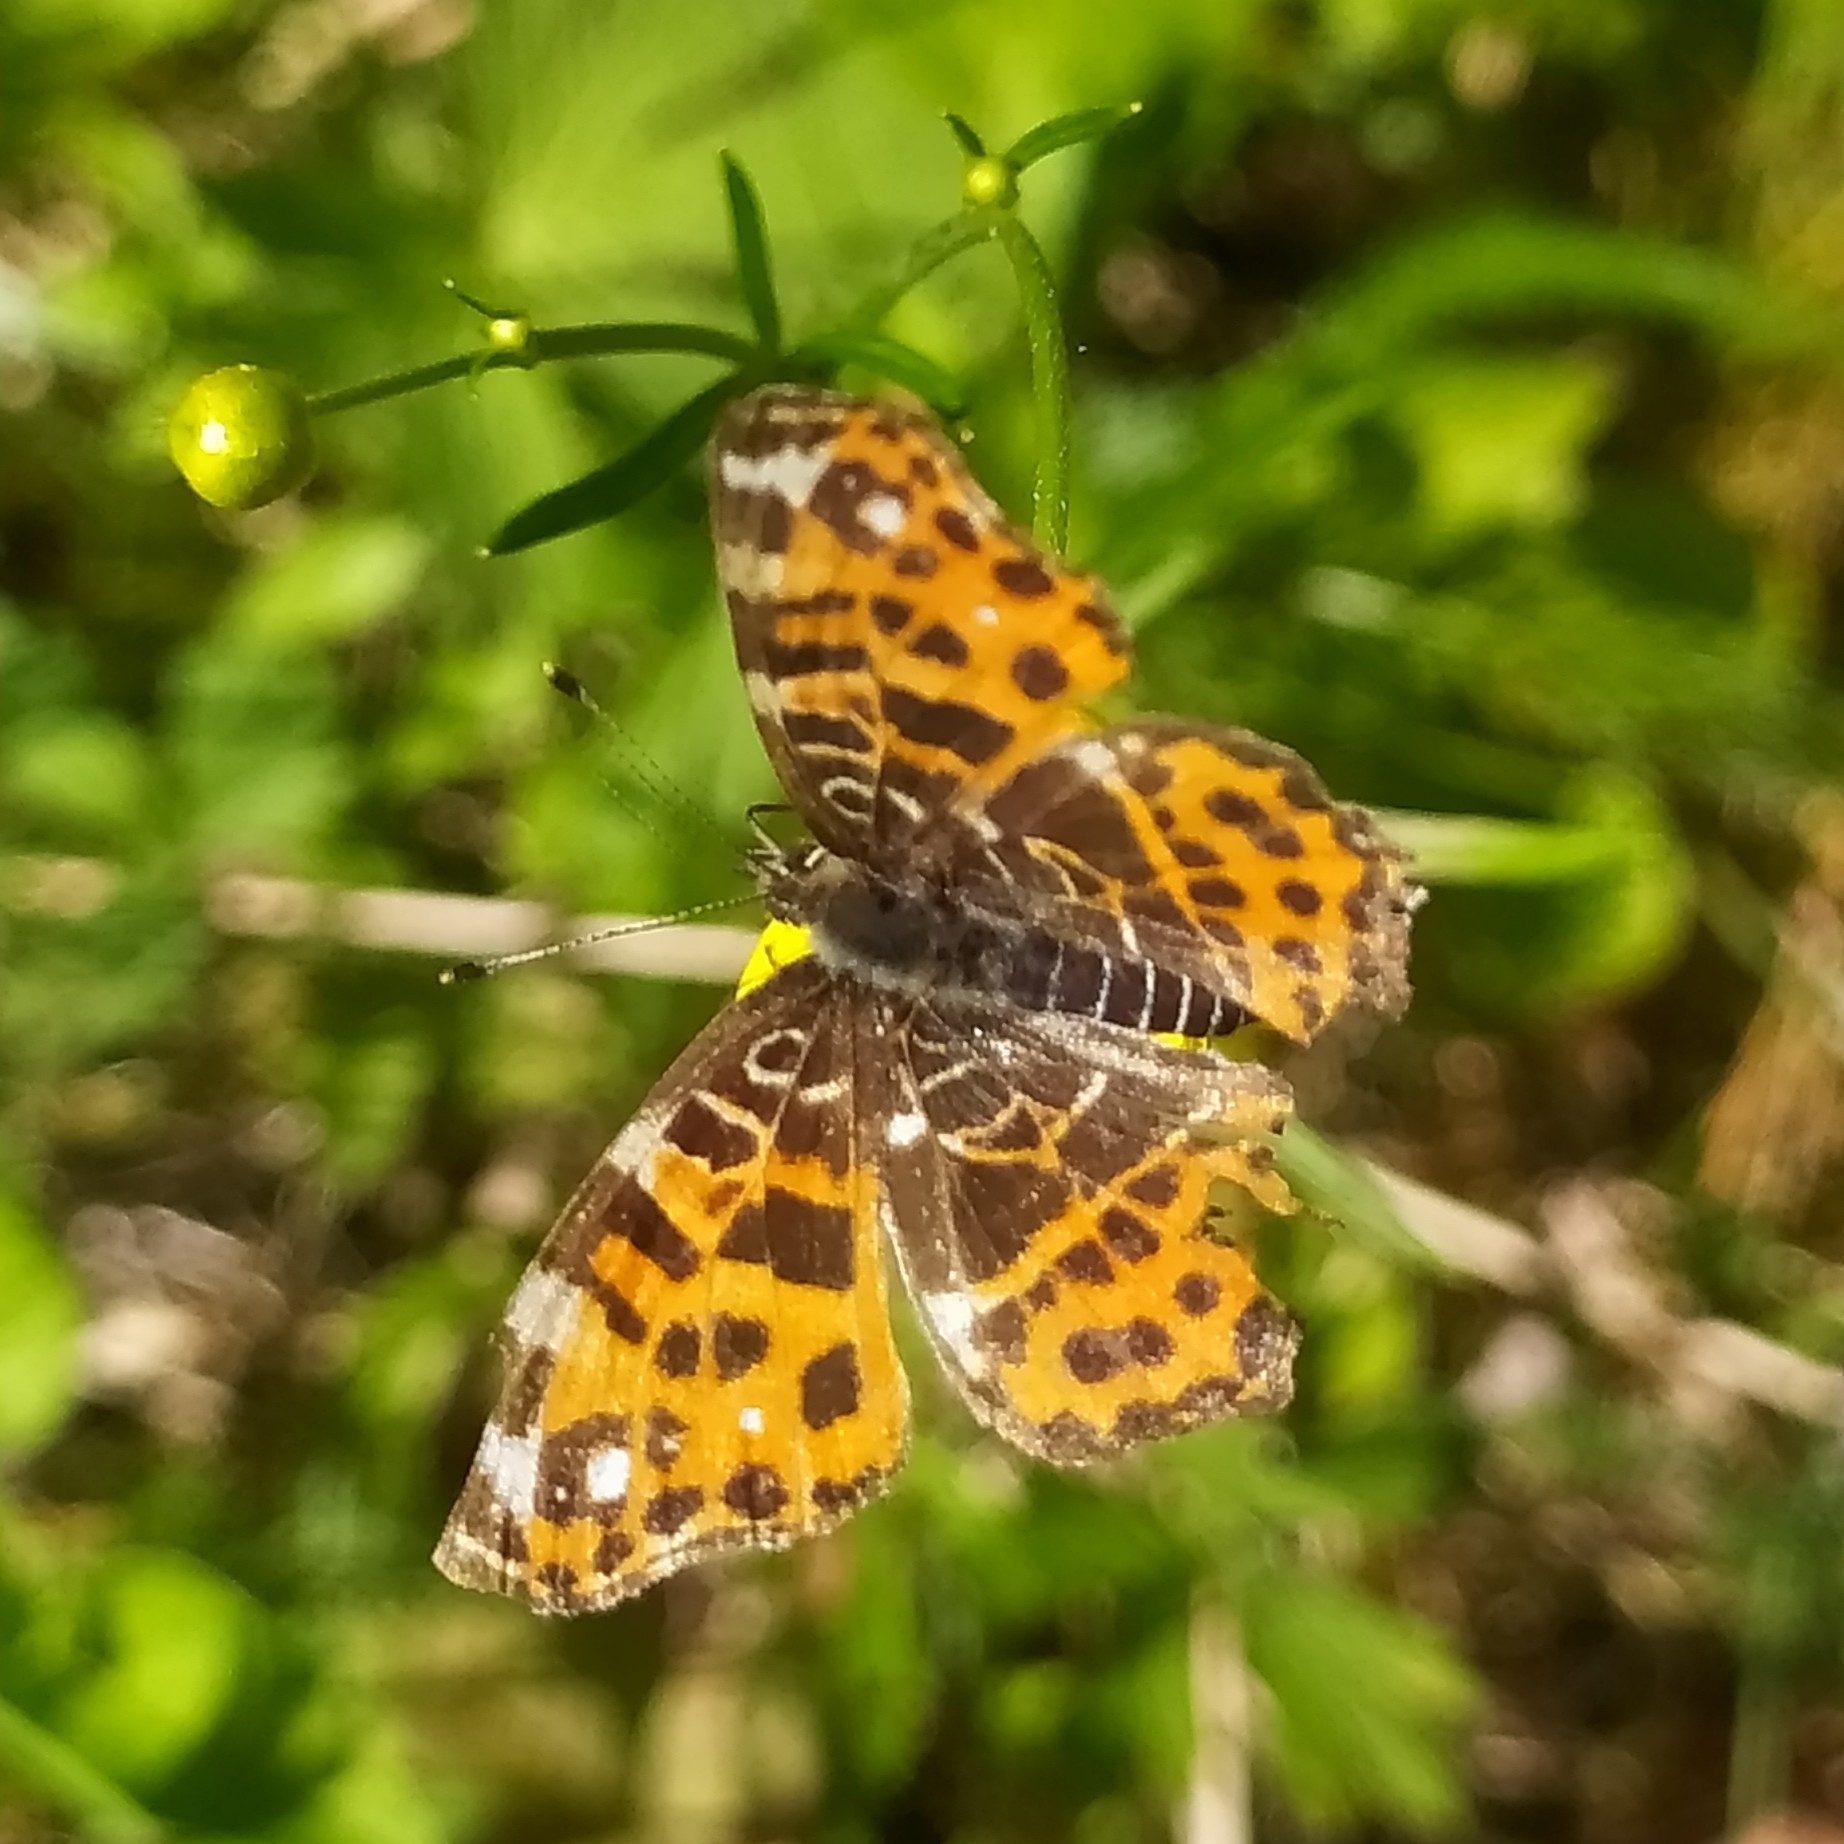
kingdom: Animalia
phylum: Arthropoda
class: Insecta
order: Lepidoptera
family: Nymphalidae
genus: Araschnia
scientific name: Araschnia levana
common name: Map butterfly
